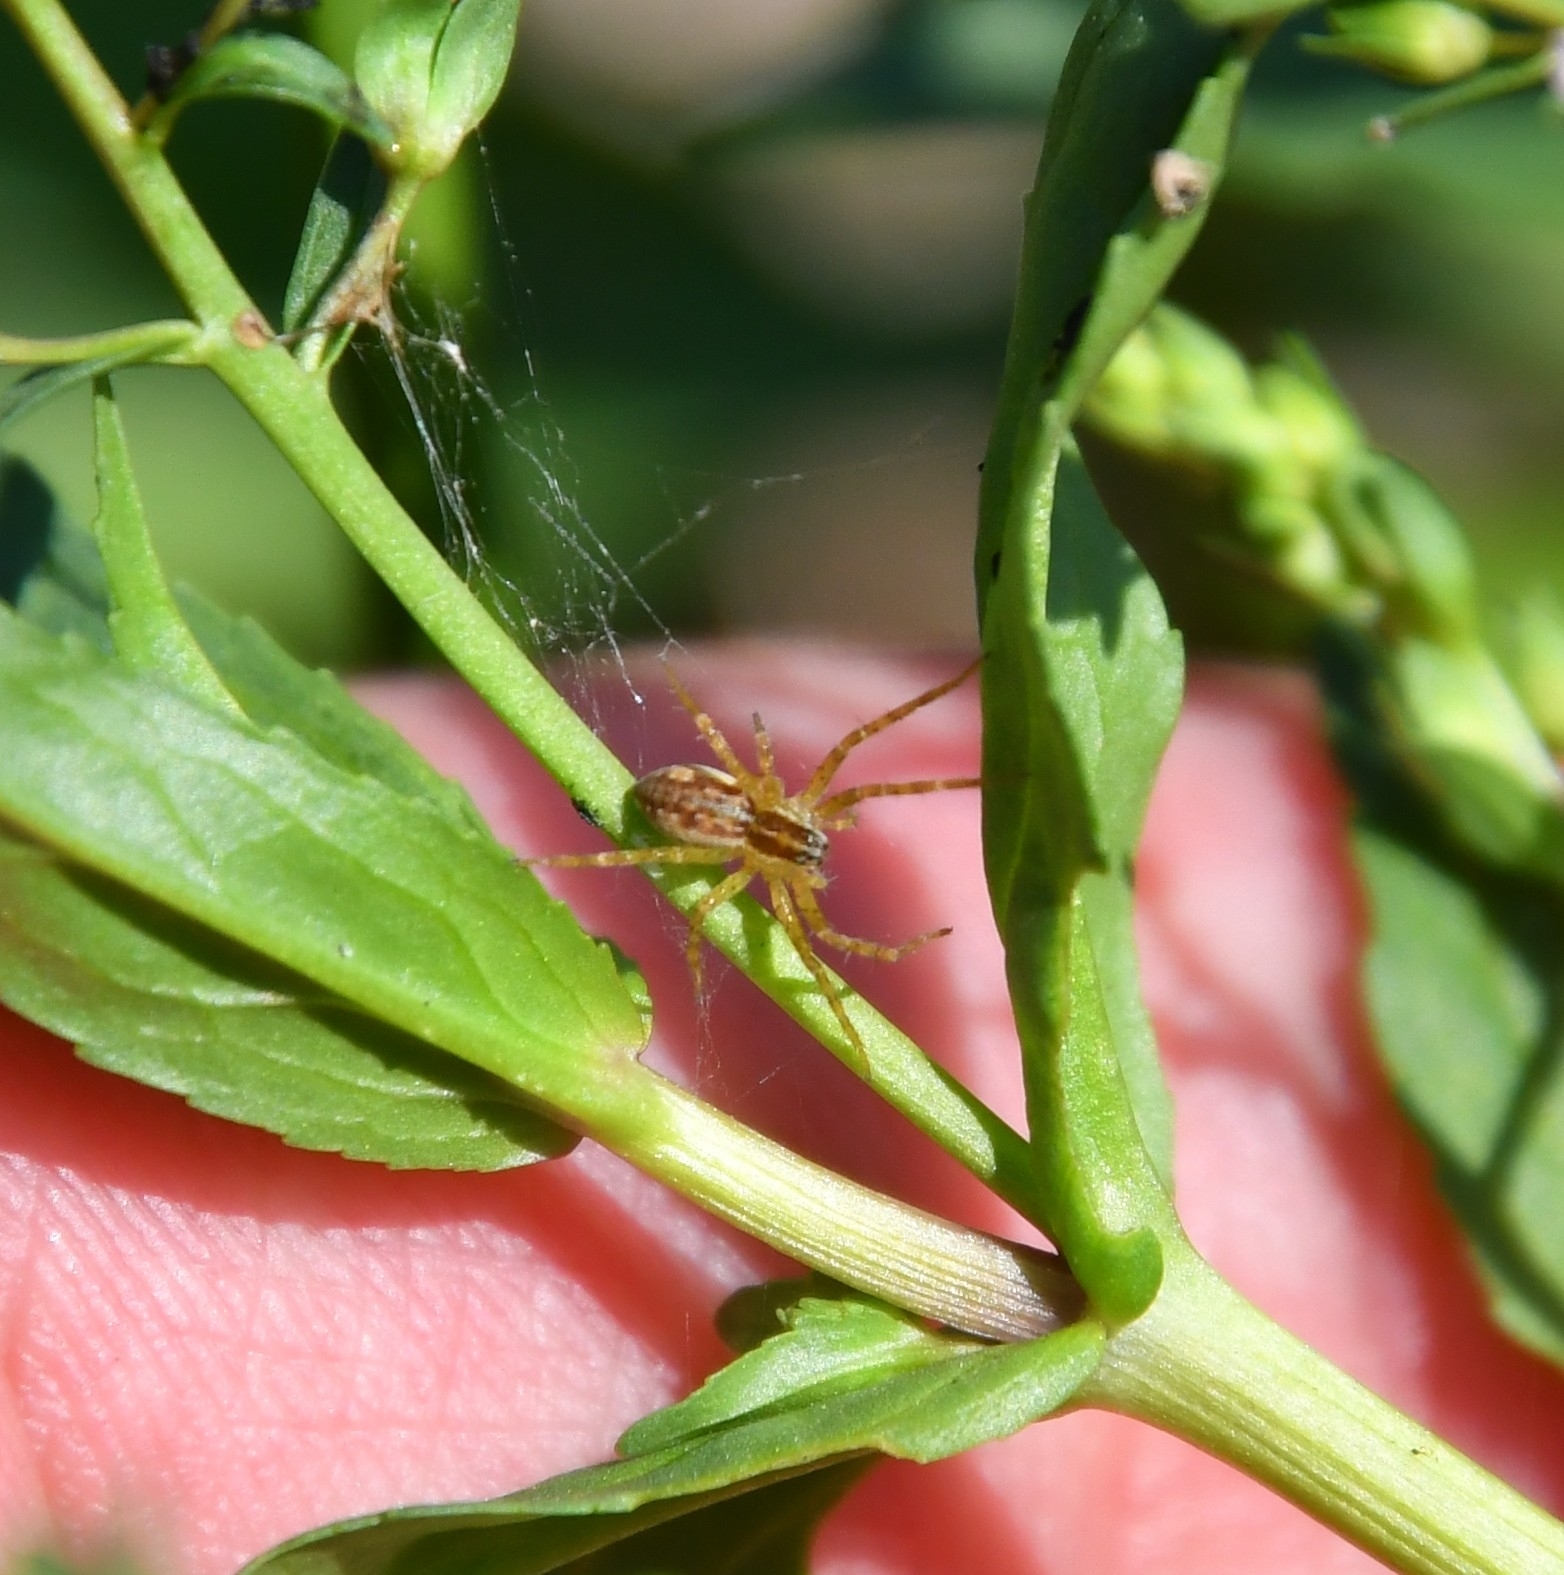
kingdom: Animalia
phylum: Arthropoda
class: Arachnida
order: Araneae
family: Pisauridae
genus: Dolomedes
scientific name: Dolomedes
